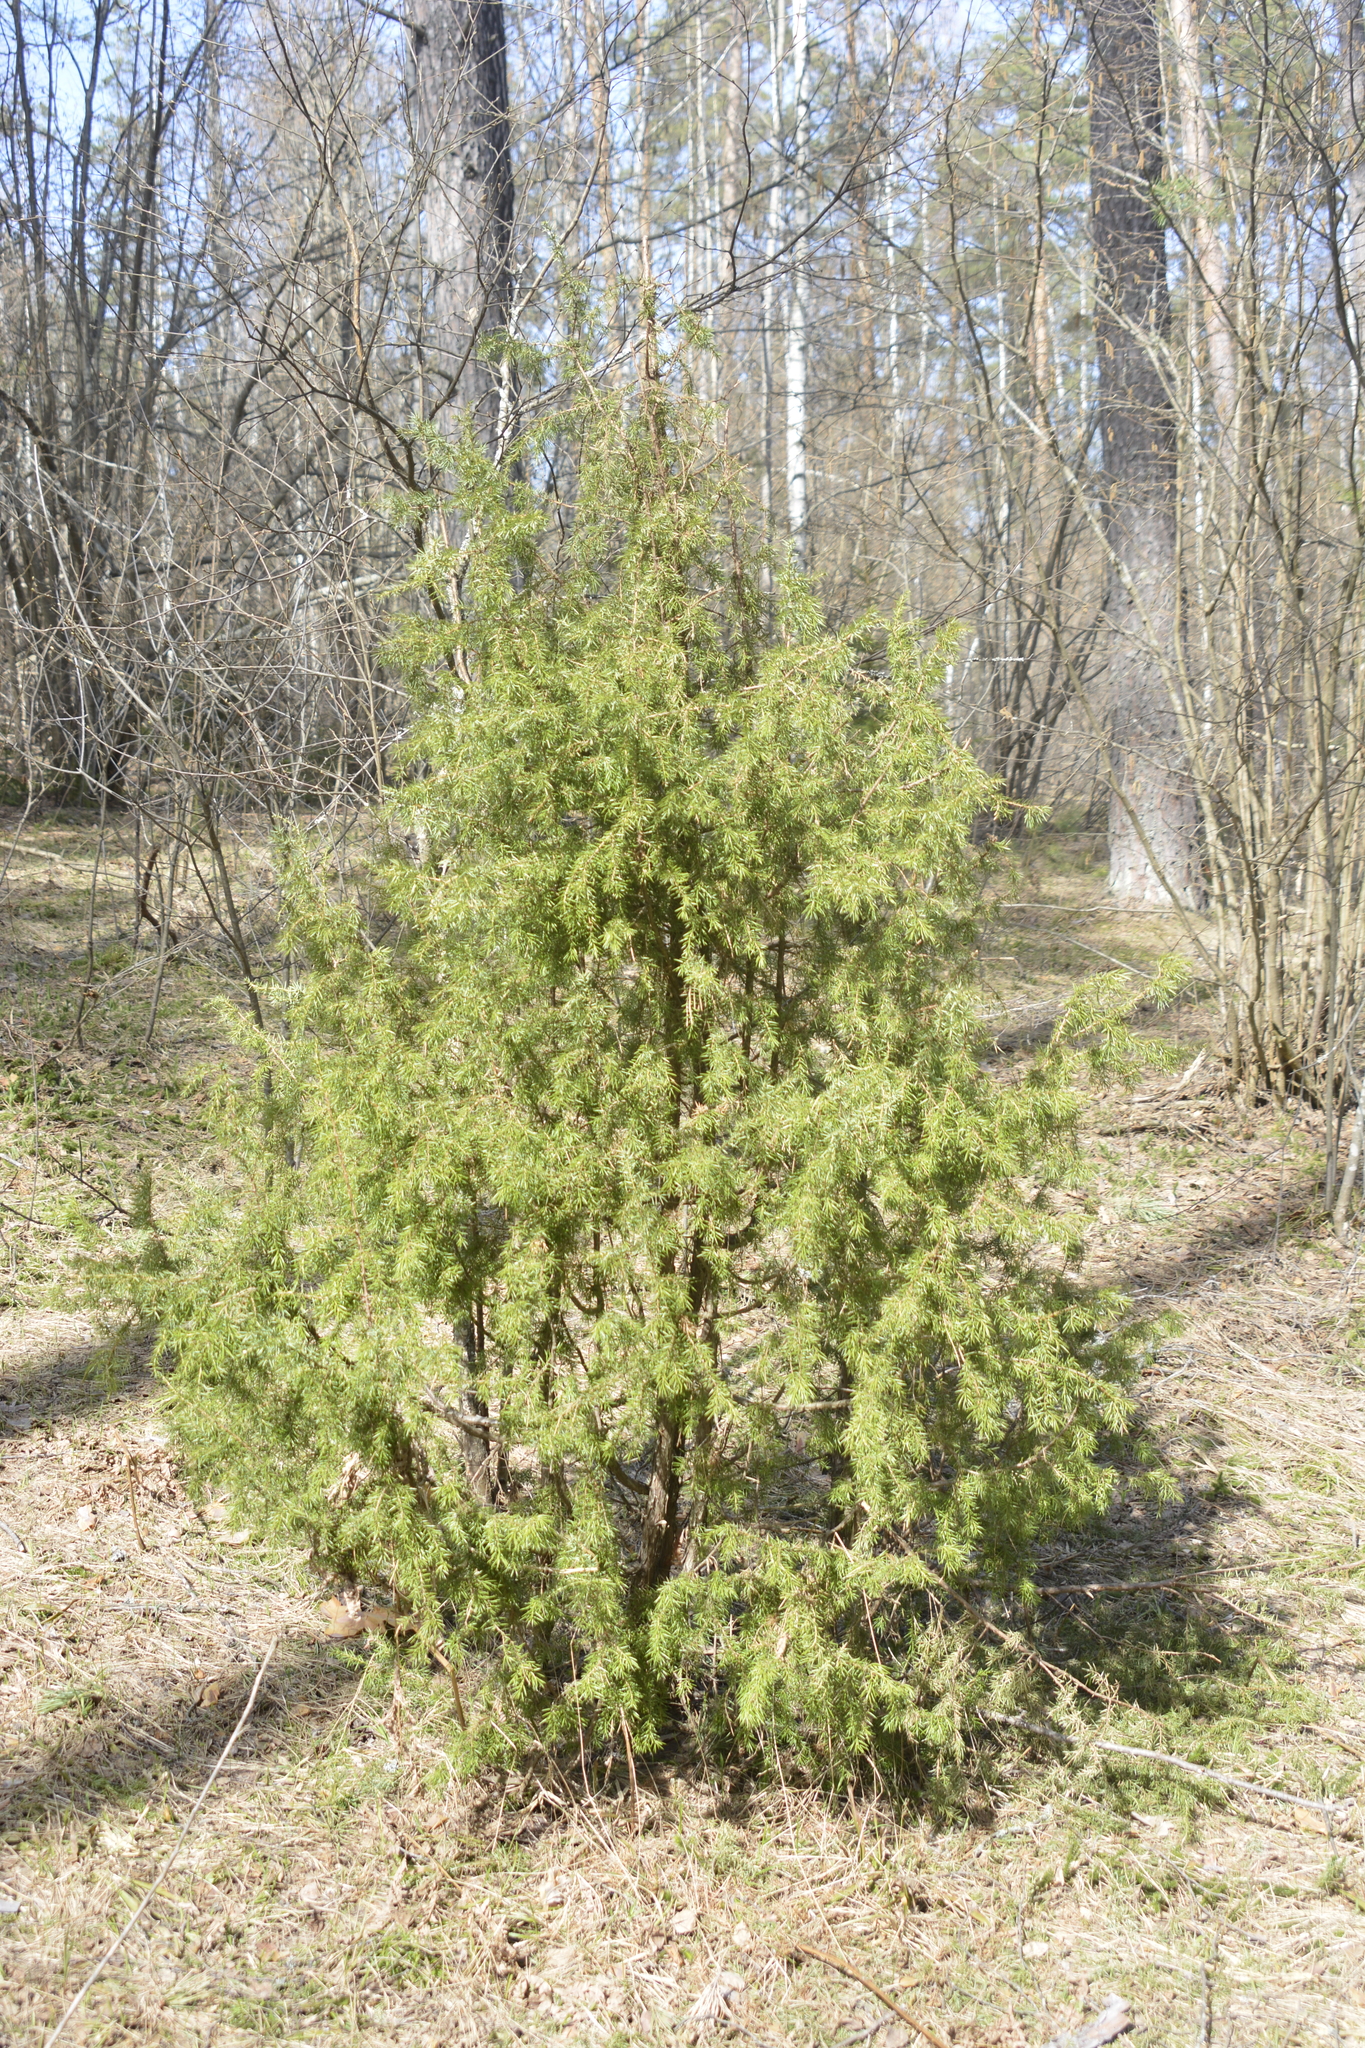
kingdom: Plantae
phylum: Tracheophyta
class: Pinopsida
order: Pinales
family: Cupressaceae
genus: Juniperus
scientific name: Juniperus communis
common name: Common juniper
